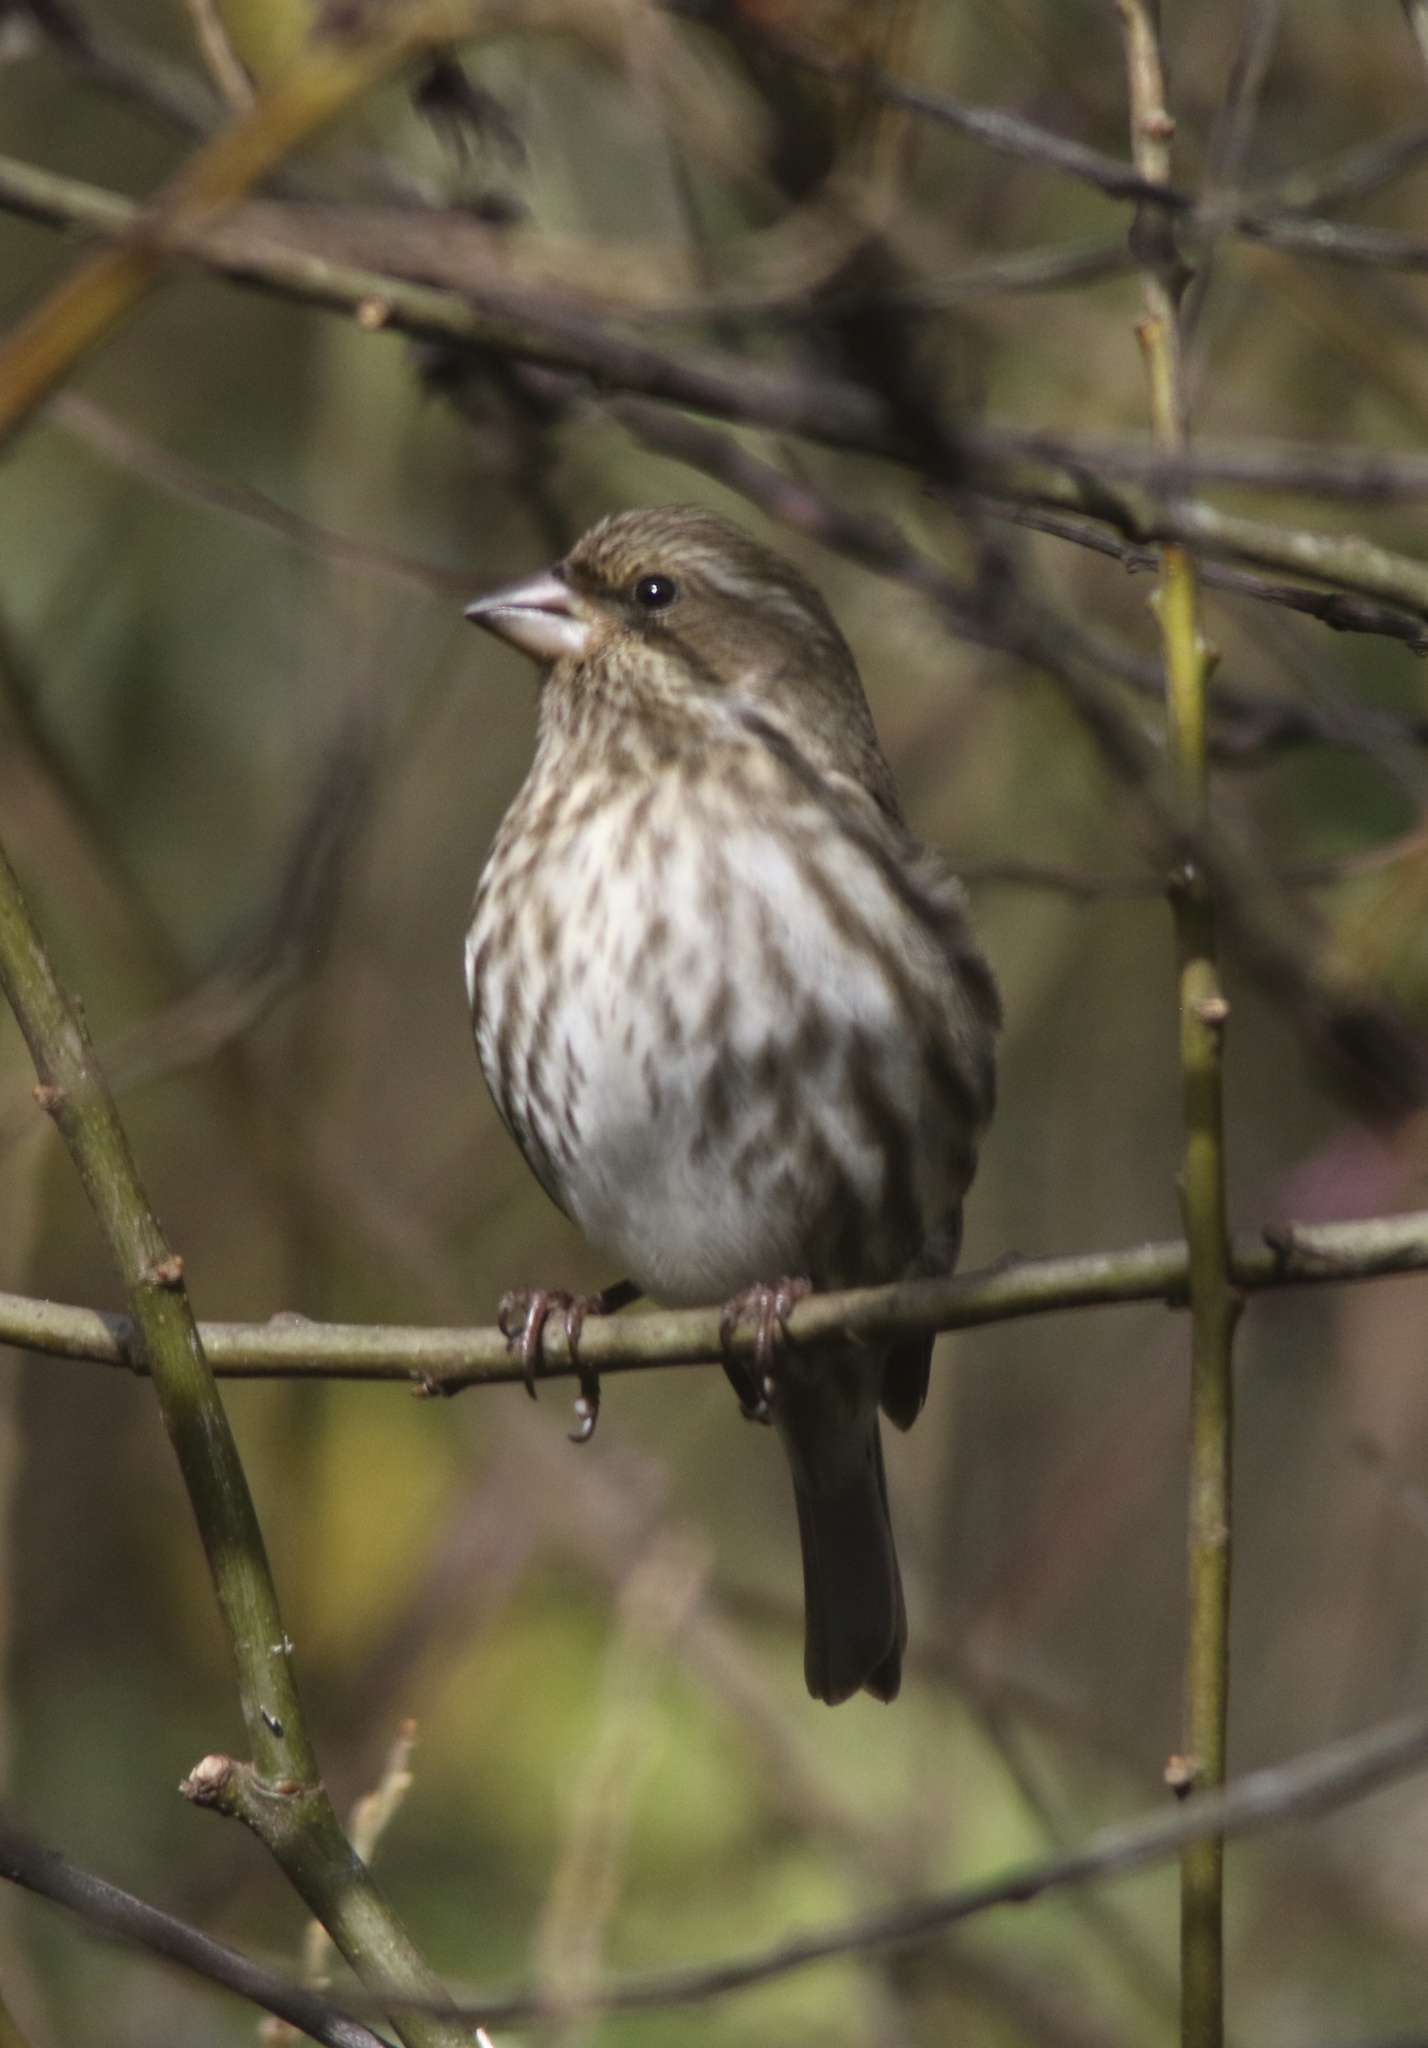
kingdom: Animalia
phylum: Chordata
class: Aves
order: Passeriformes
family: Fringillidae
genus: Haemorhous
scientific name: Haemorhous purpureus
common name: Purple finch
